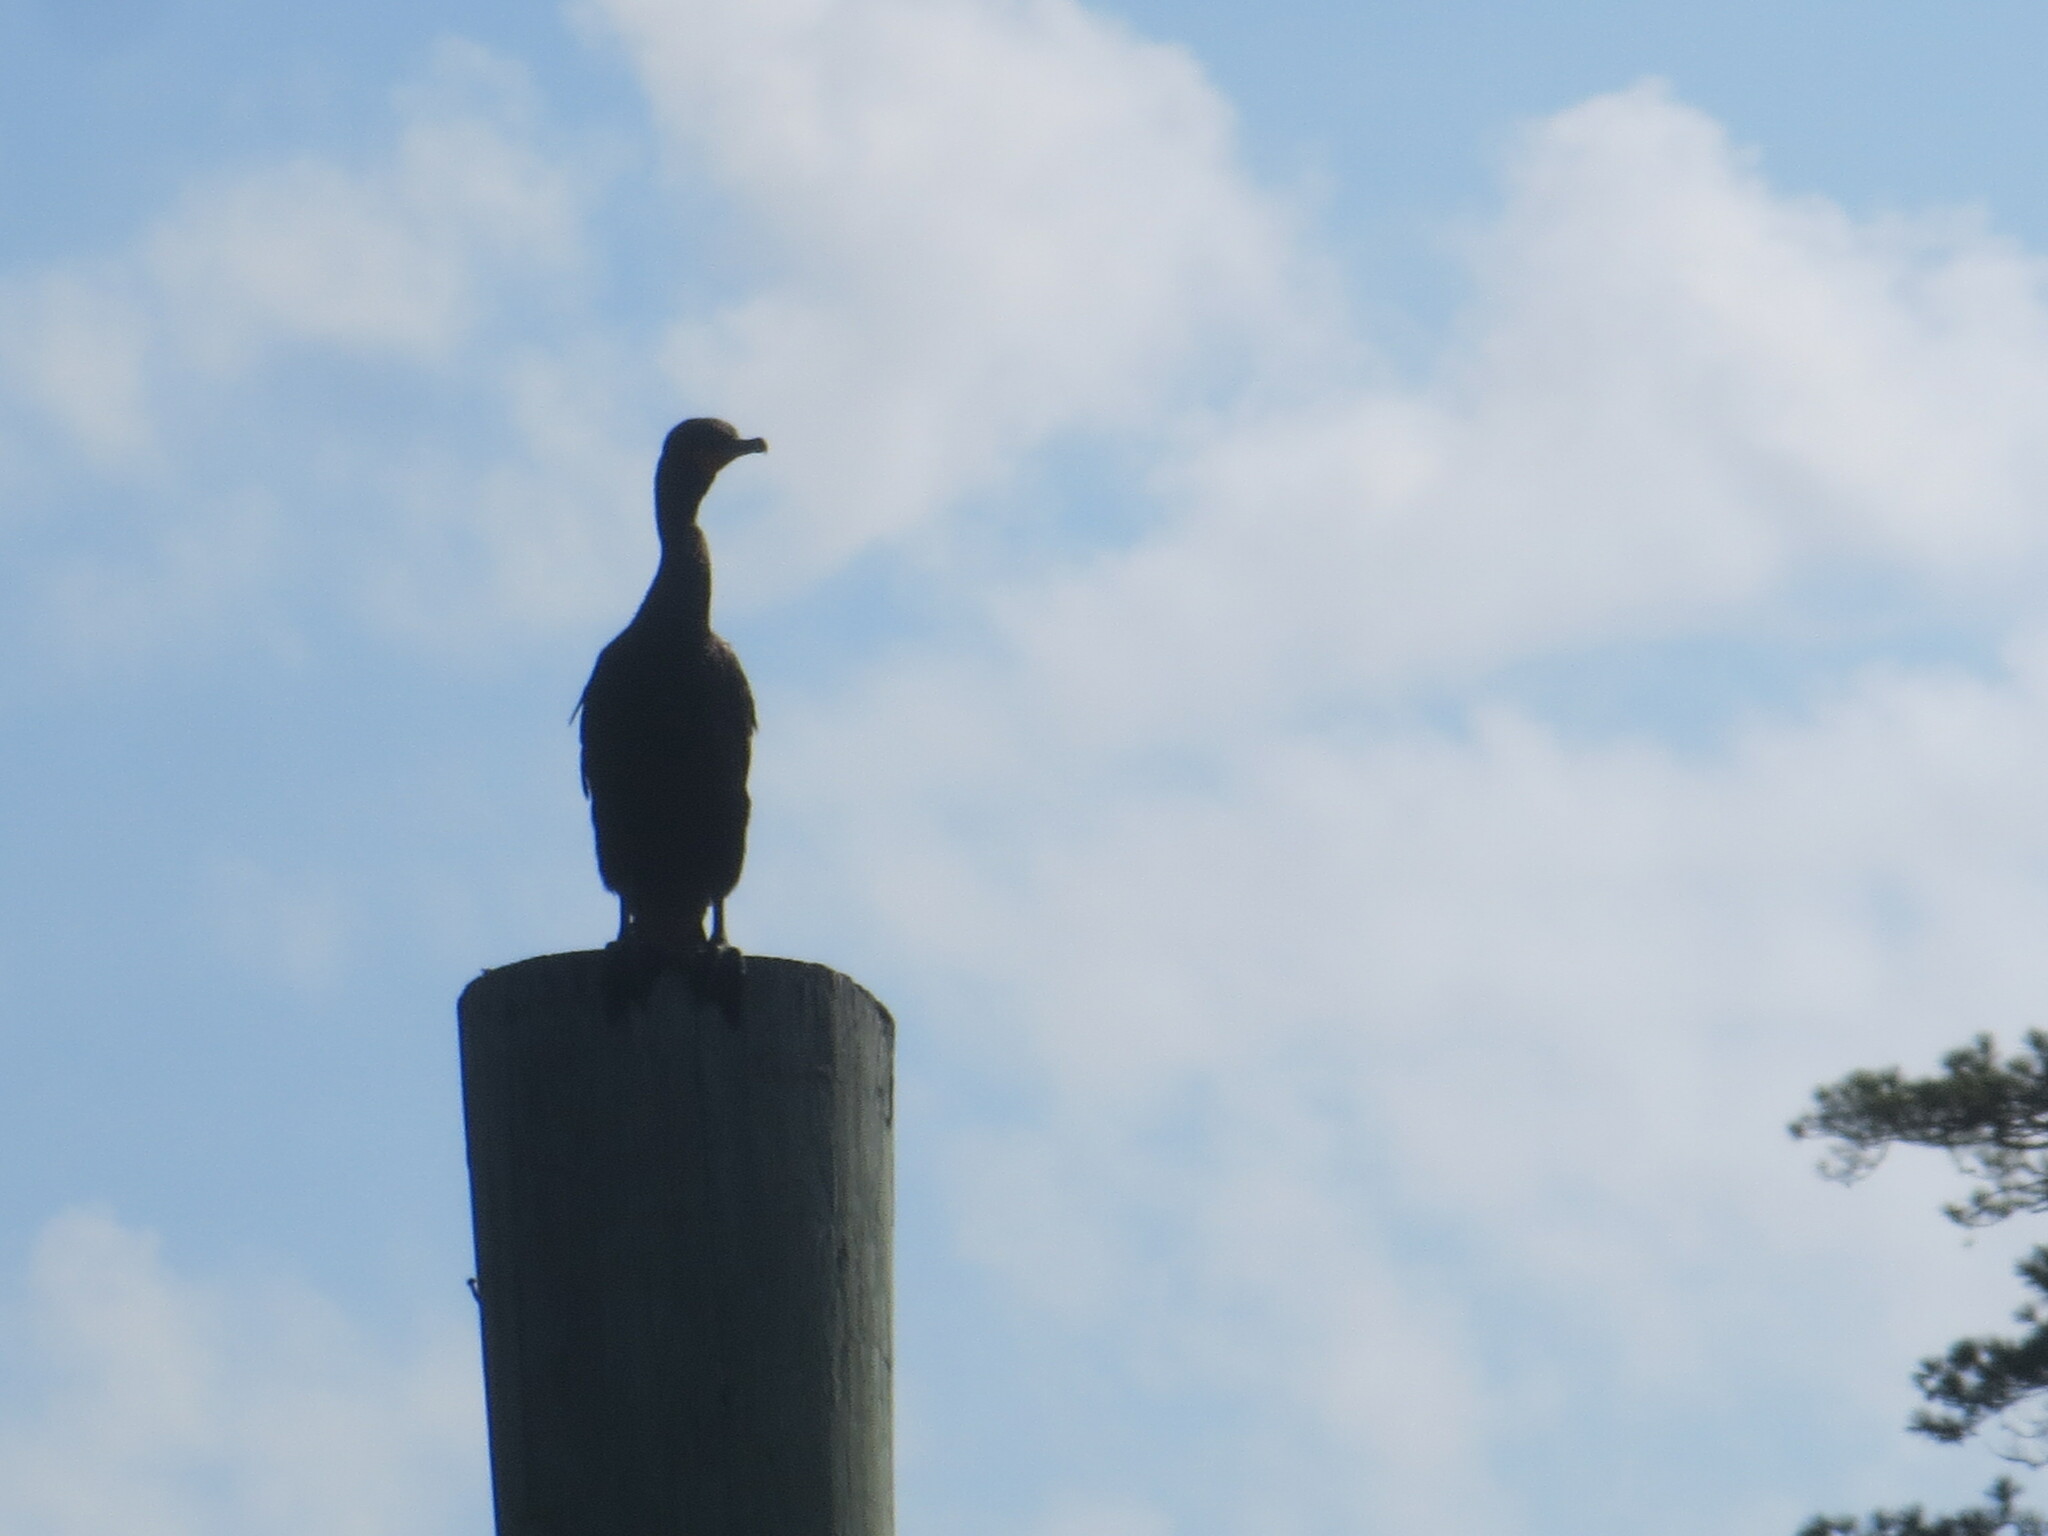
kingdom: Animalia
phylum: Chordata
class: Aves
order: Suliformes
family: Phalacrocoracidae
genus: Phalacrocorax
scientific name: Phalacrocorax auritus
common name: Double-crested cormorant
